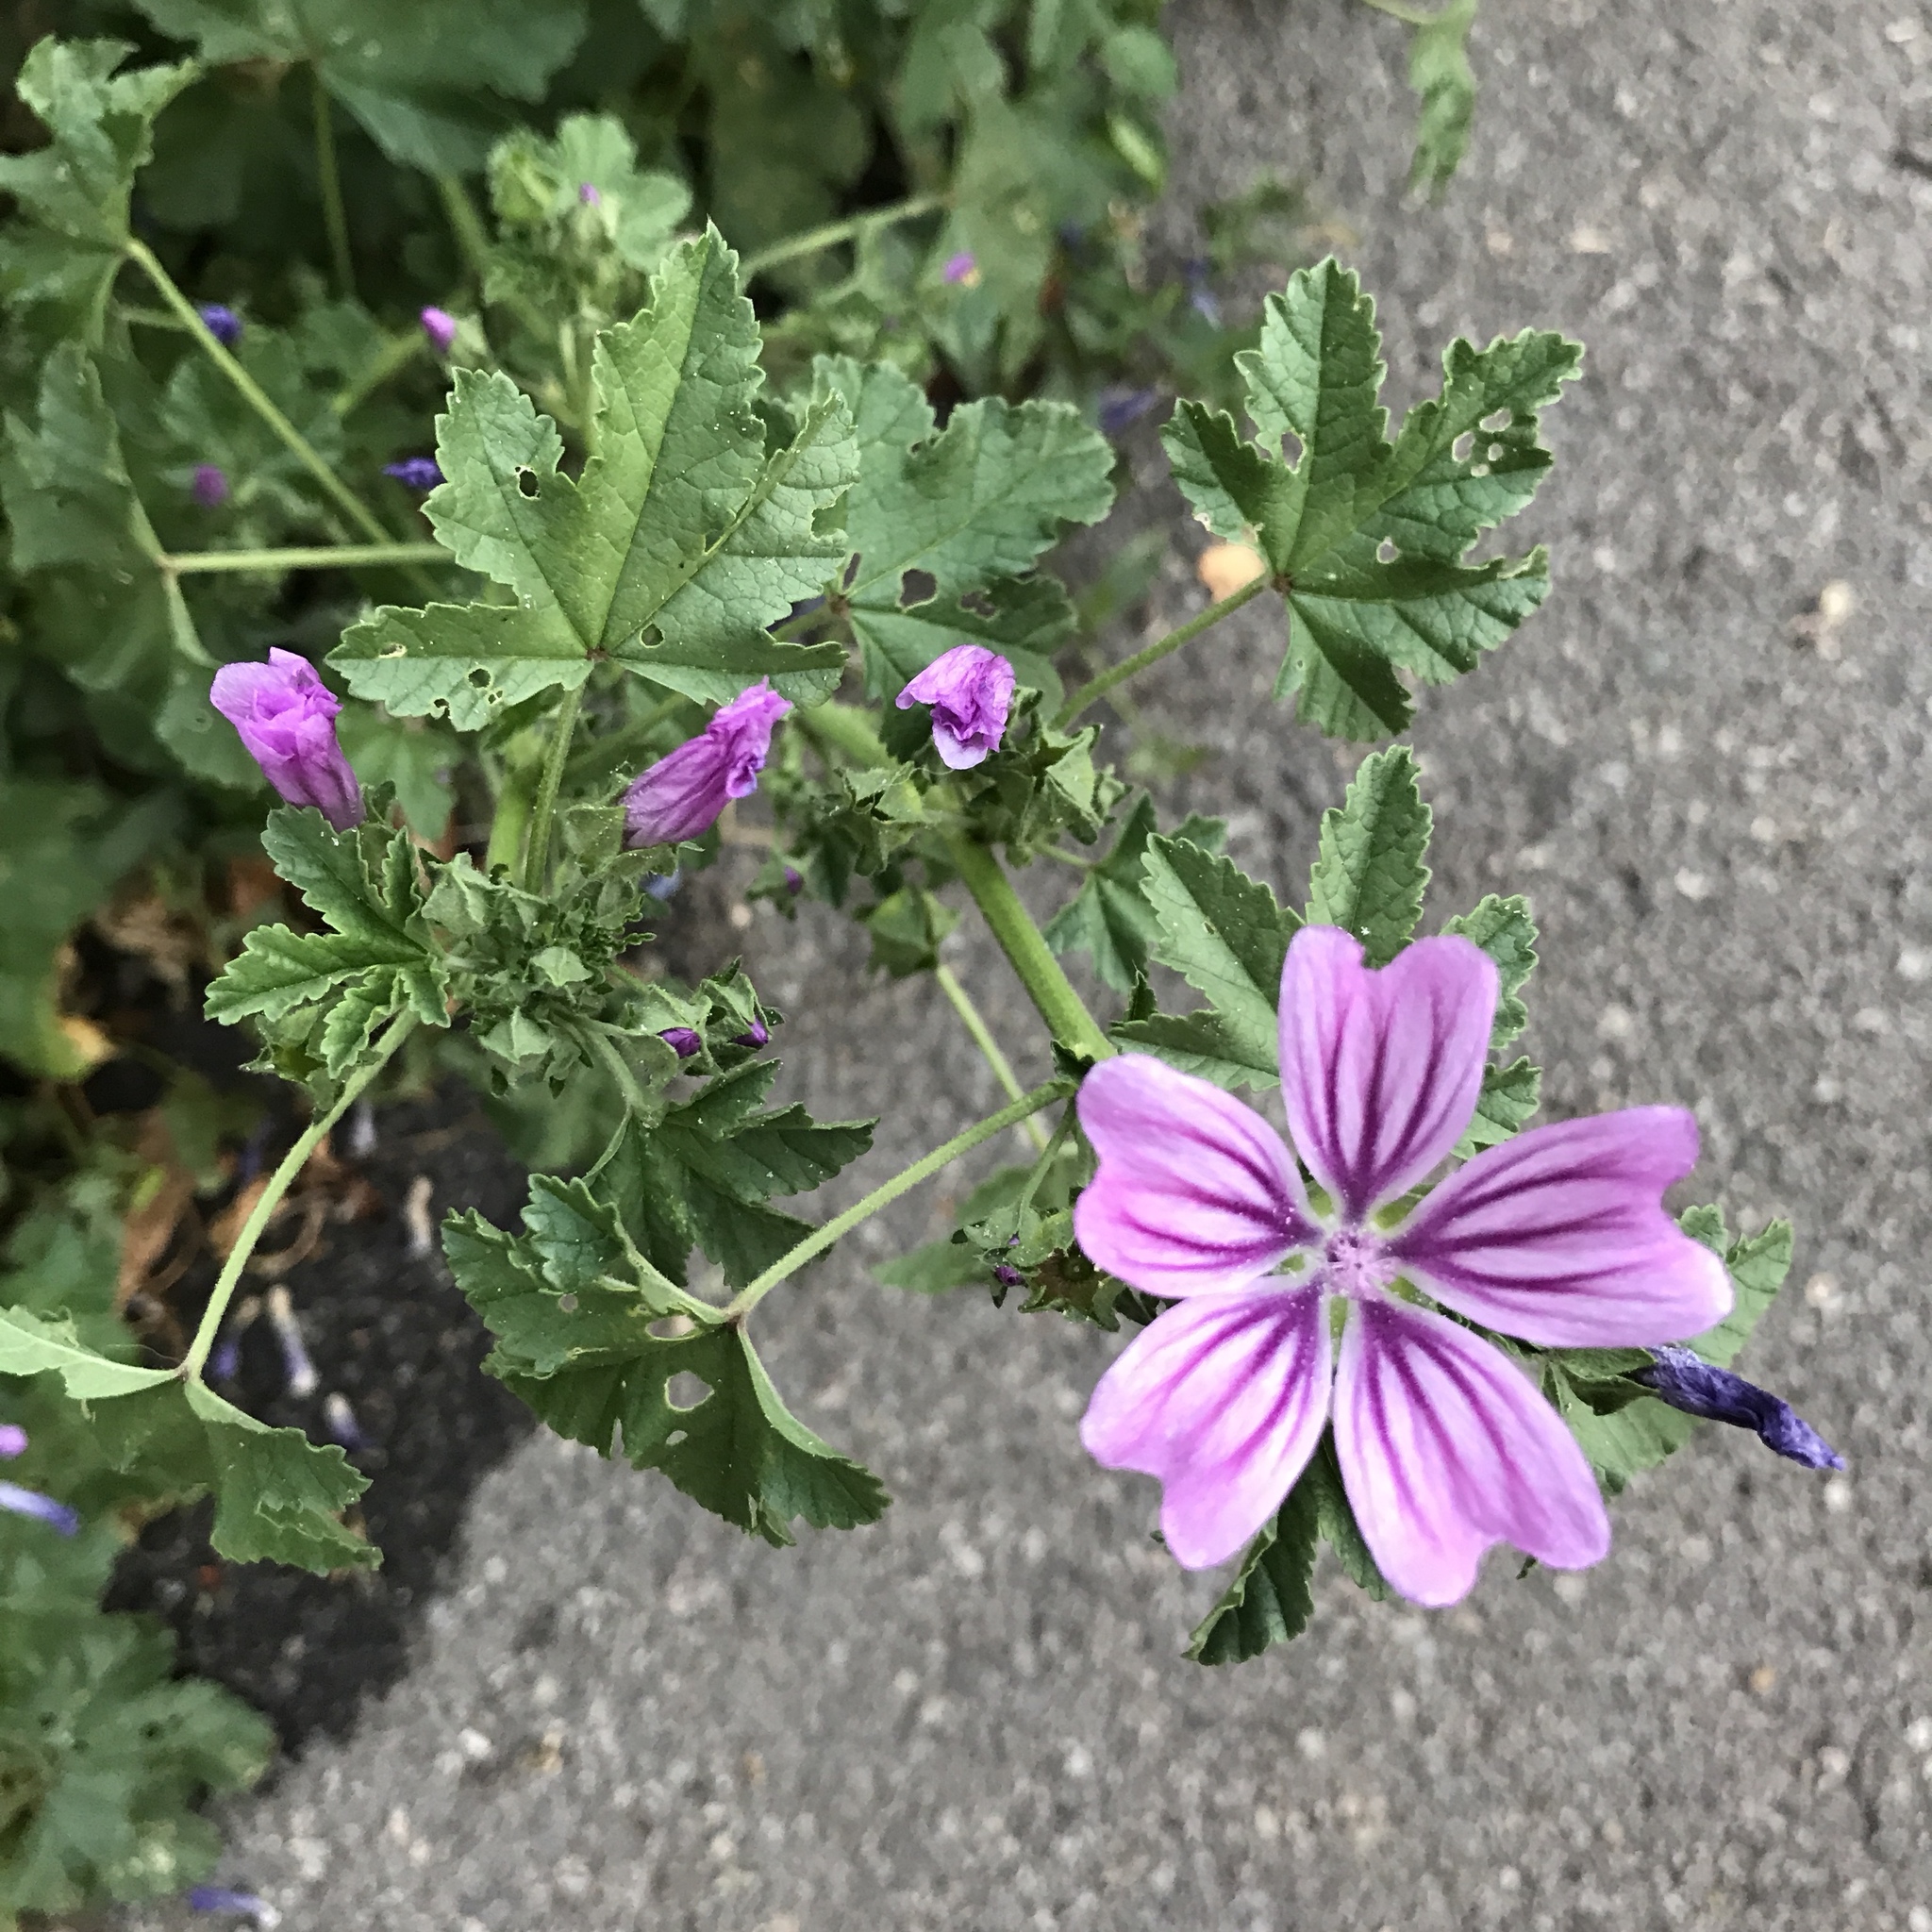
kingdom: Plantae
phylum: Tracheophyta
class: Magnoliopsida
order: Malvales
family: Malvaceae
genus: Malva
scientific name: Malva sylvestris
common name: Common mallow
